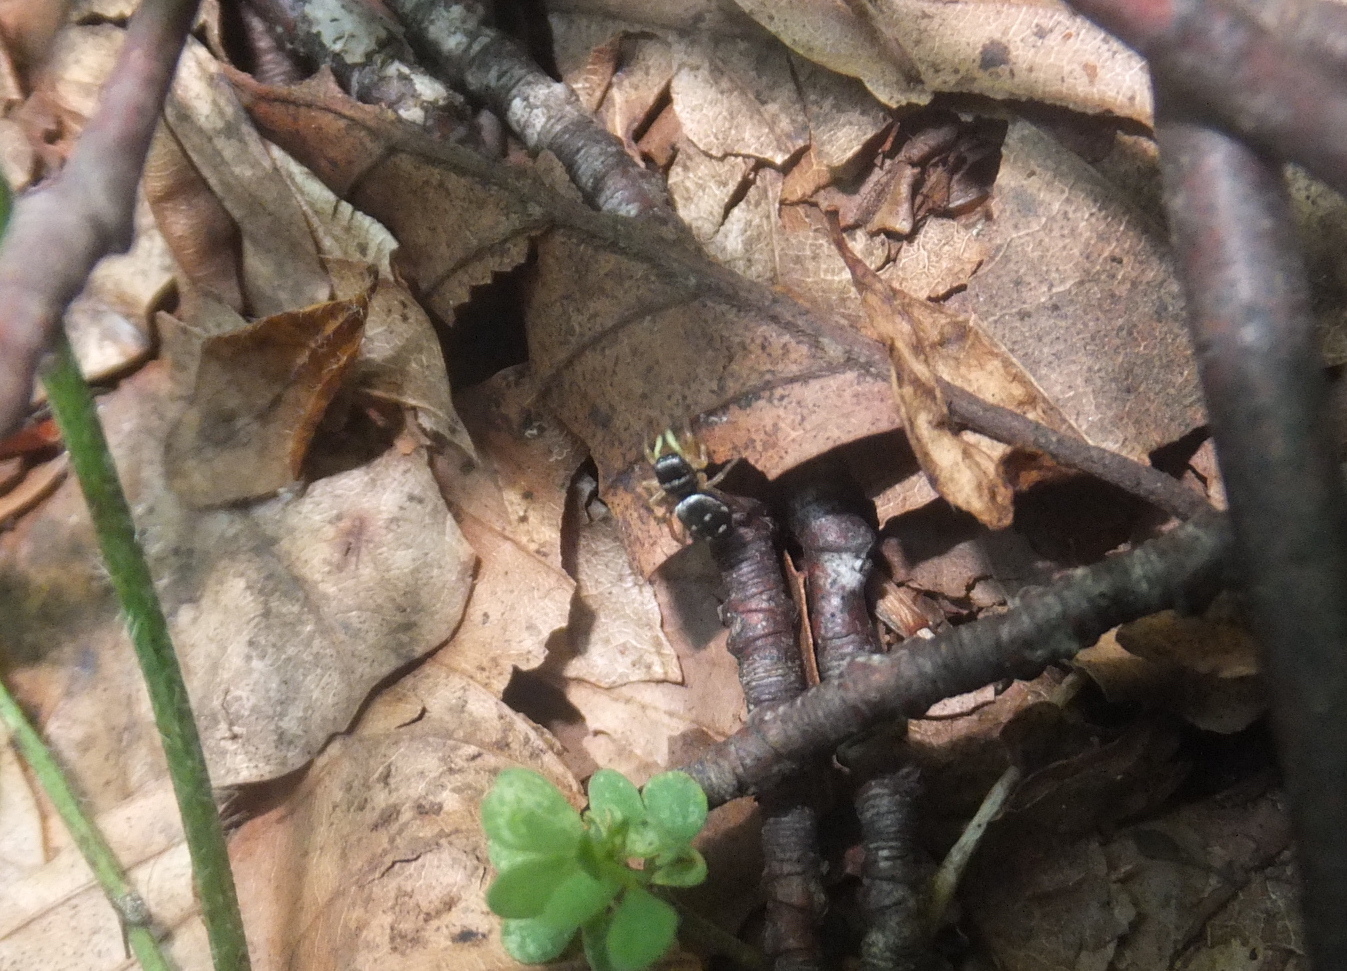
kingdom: Animalia
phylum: Arthropoda
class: Arachnida
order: Araneae
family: Salticidae
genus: Heliophanus
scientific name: Heliophanus cupreus
